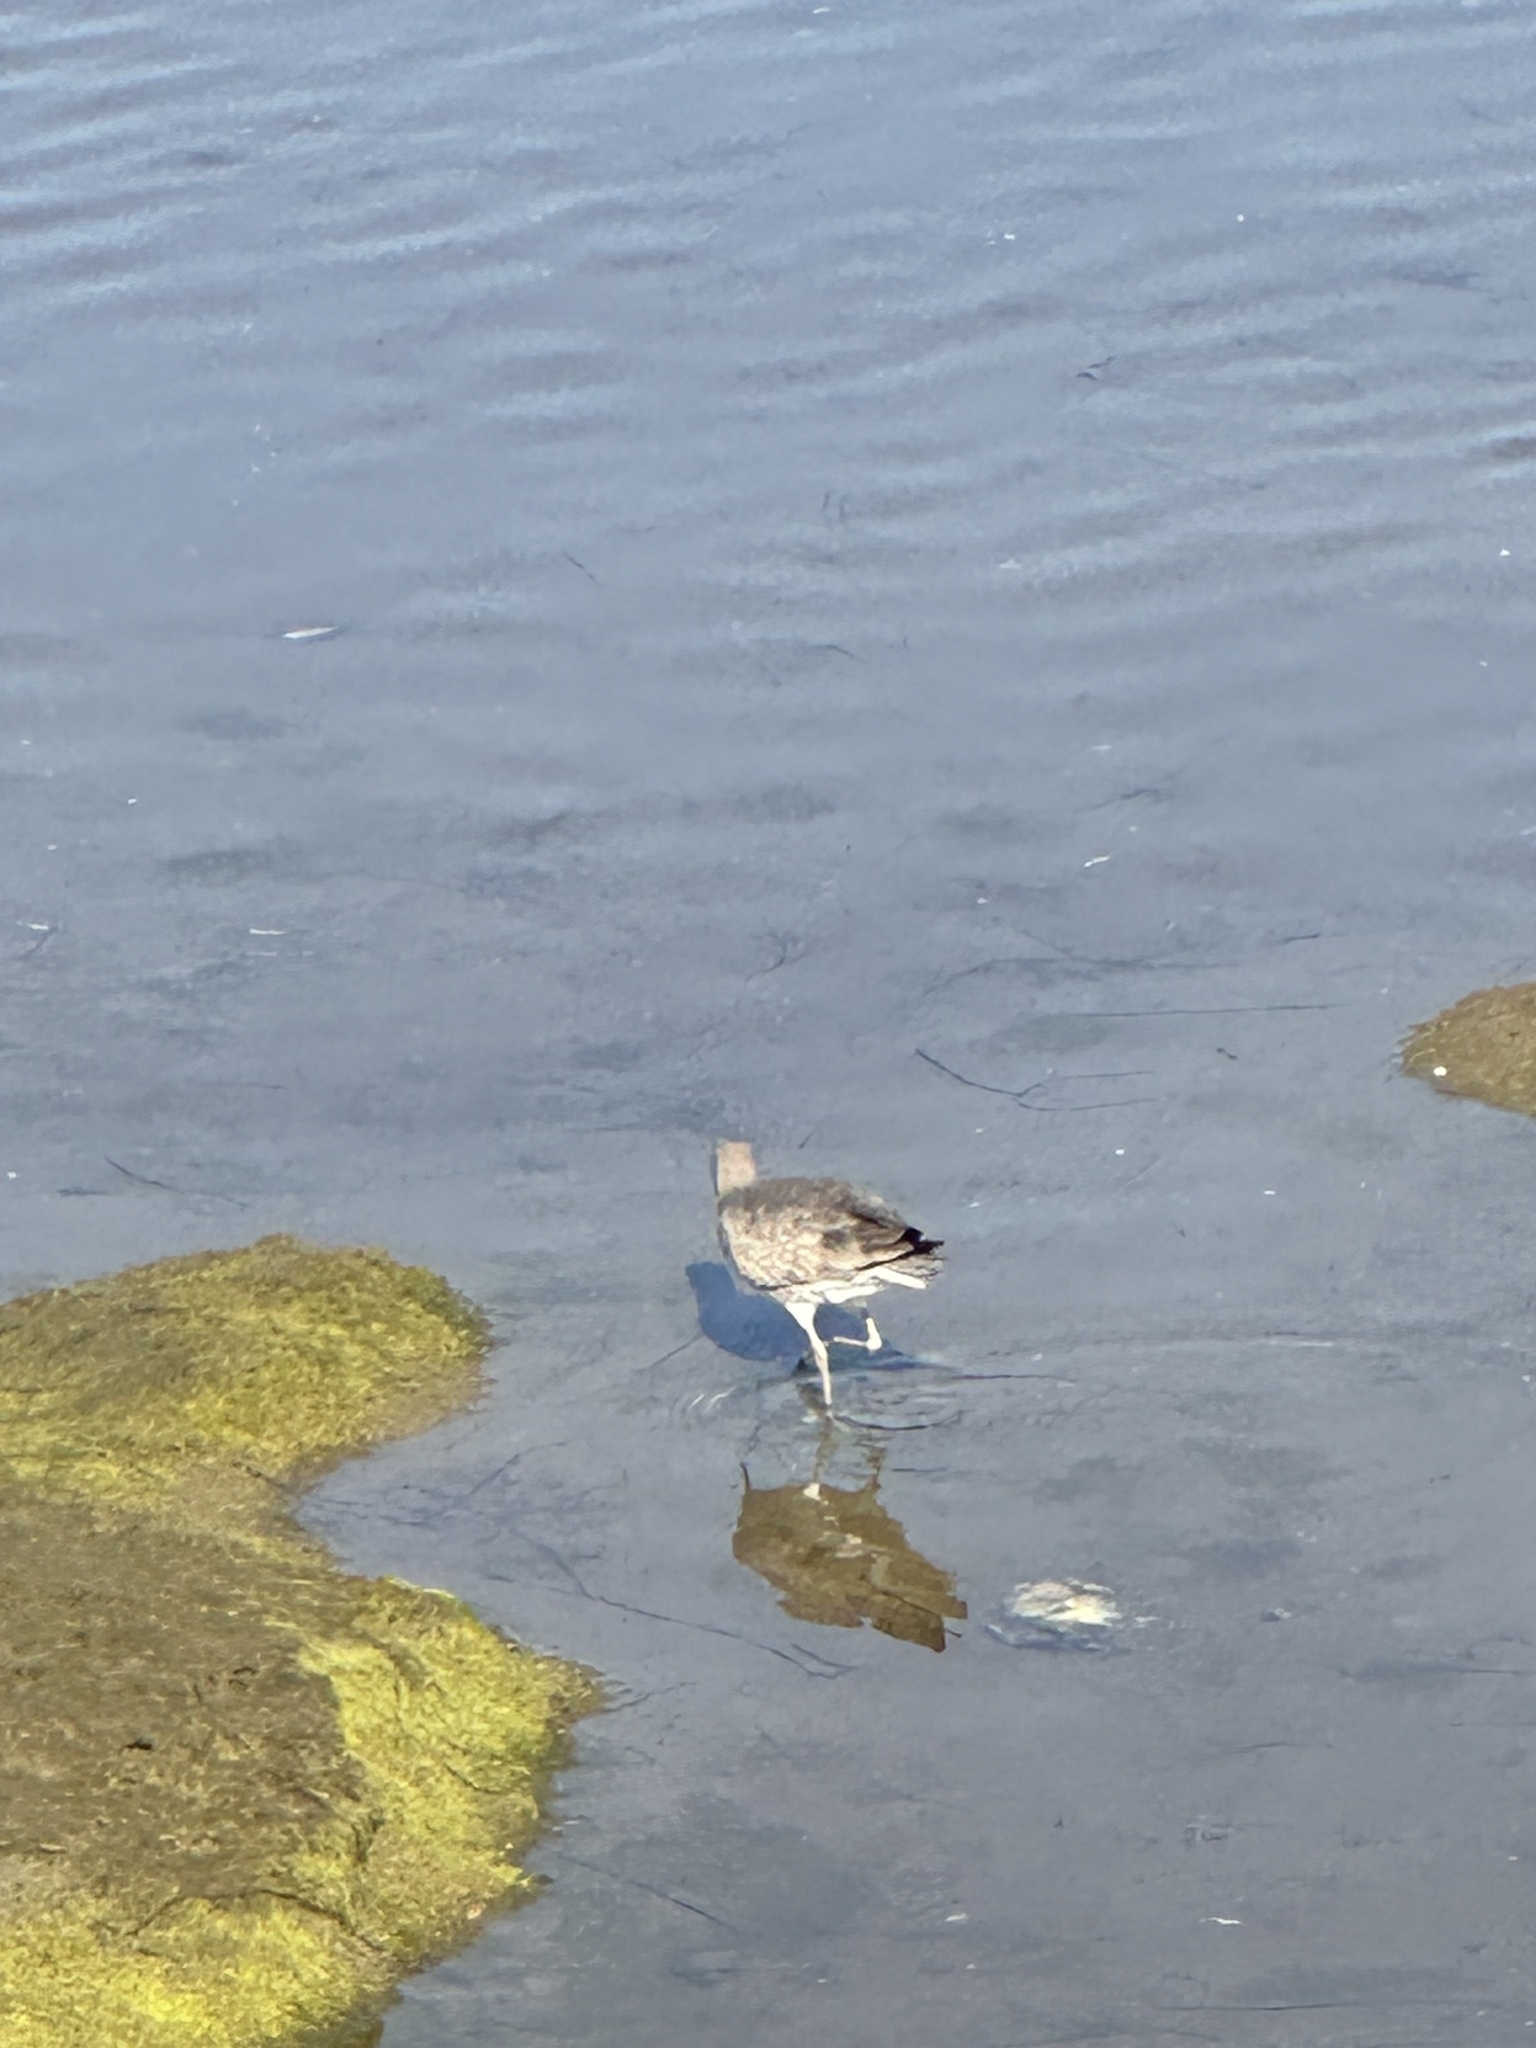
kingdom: Animalia
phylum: Chordata
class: Aves
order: Charadriiformes
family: Scolopacidae
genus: Tringa
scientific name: Tringa semipalmata
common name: Willet
